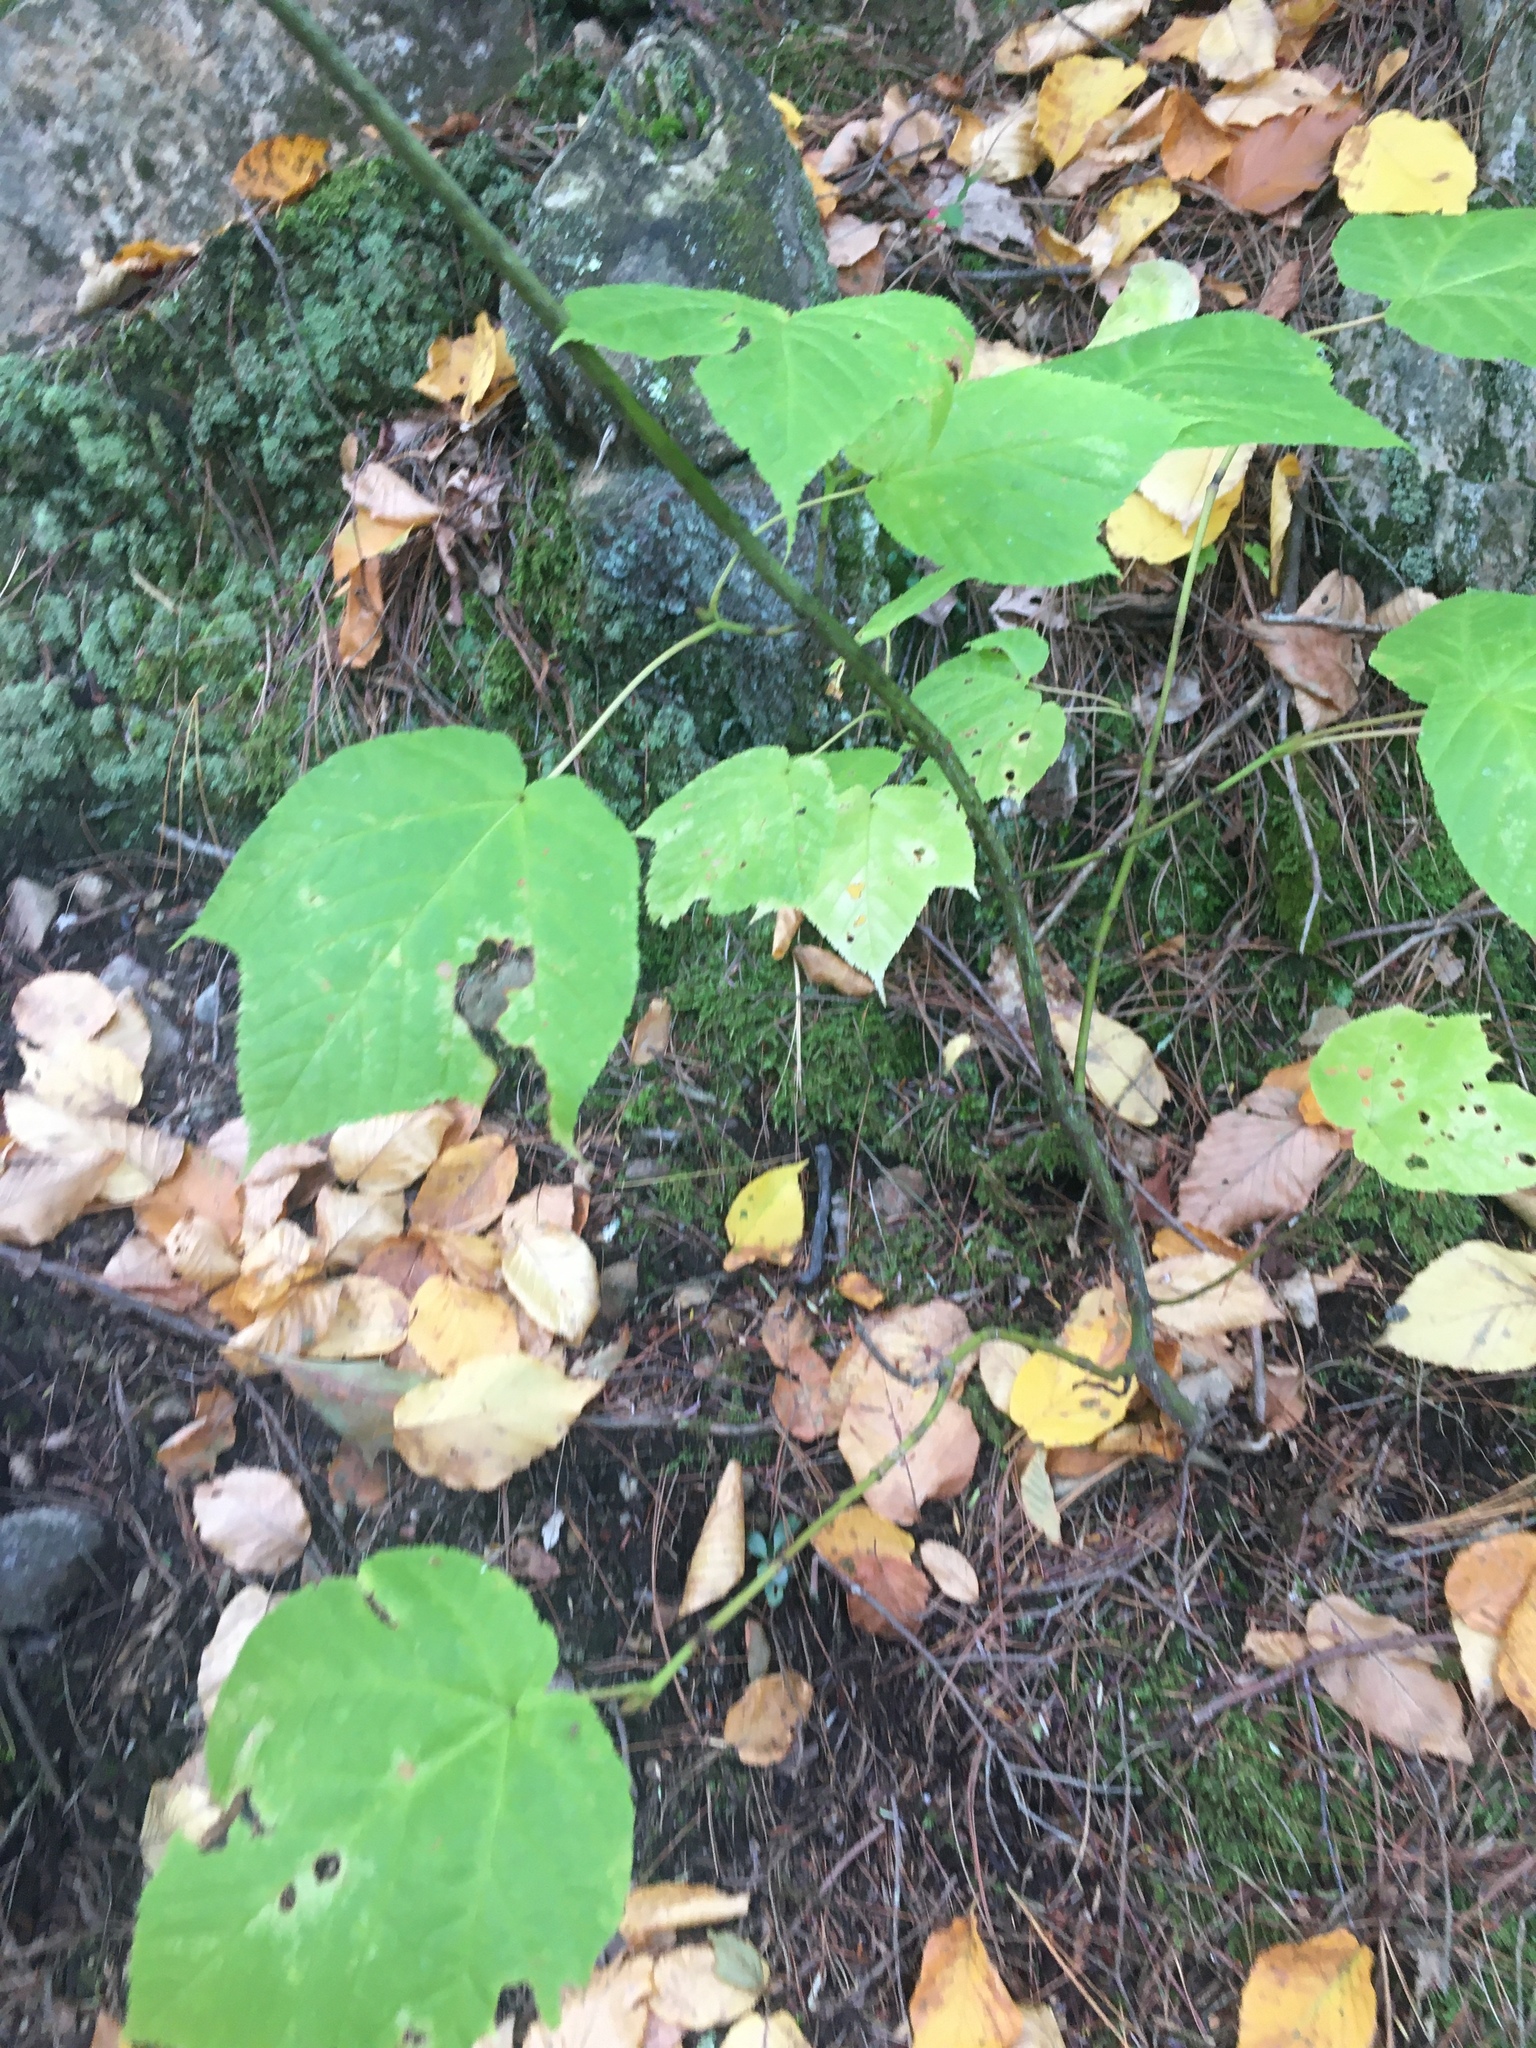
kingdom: Plantae
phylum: Tracheophyta
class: Magnoliopsida
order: Sapindales
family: Sapindaceae
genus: Acer
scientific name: Acer pensylvanicum
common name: Moosewood
